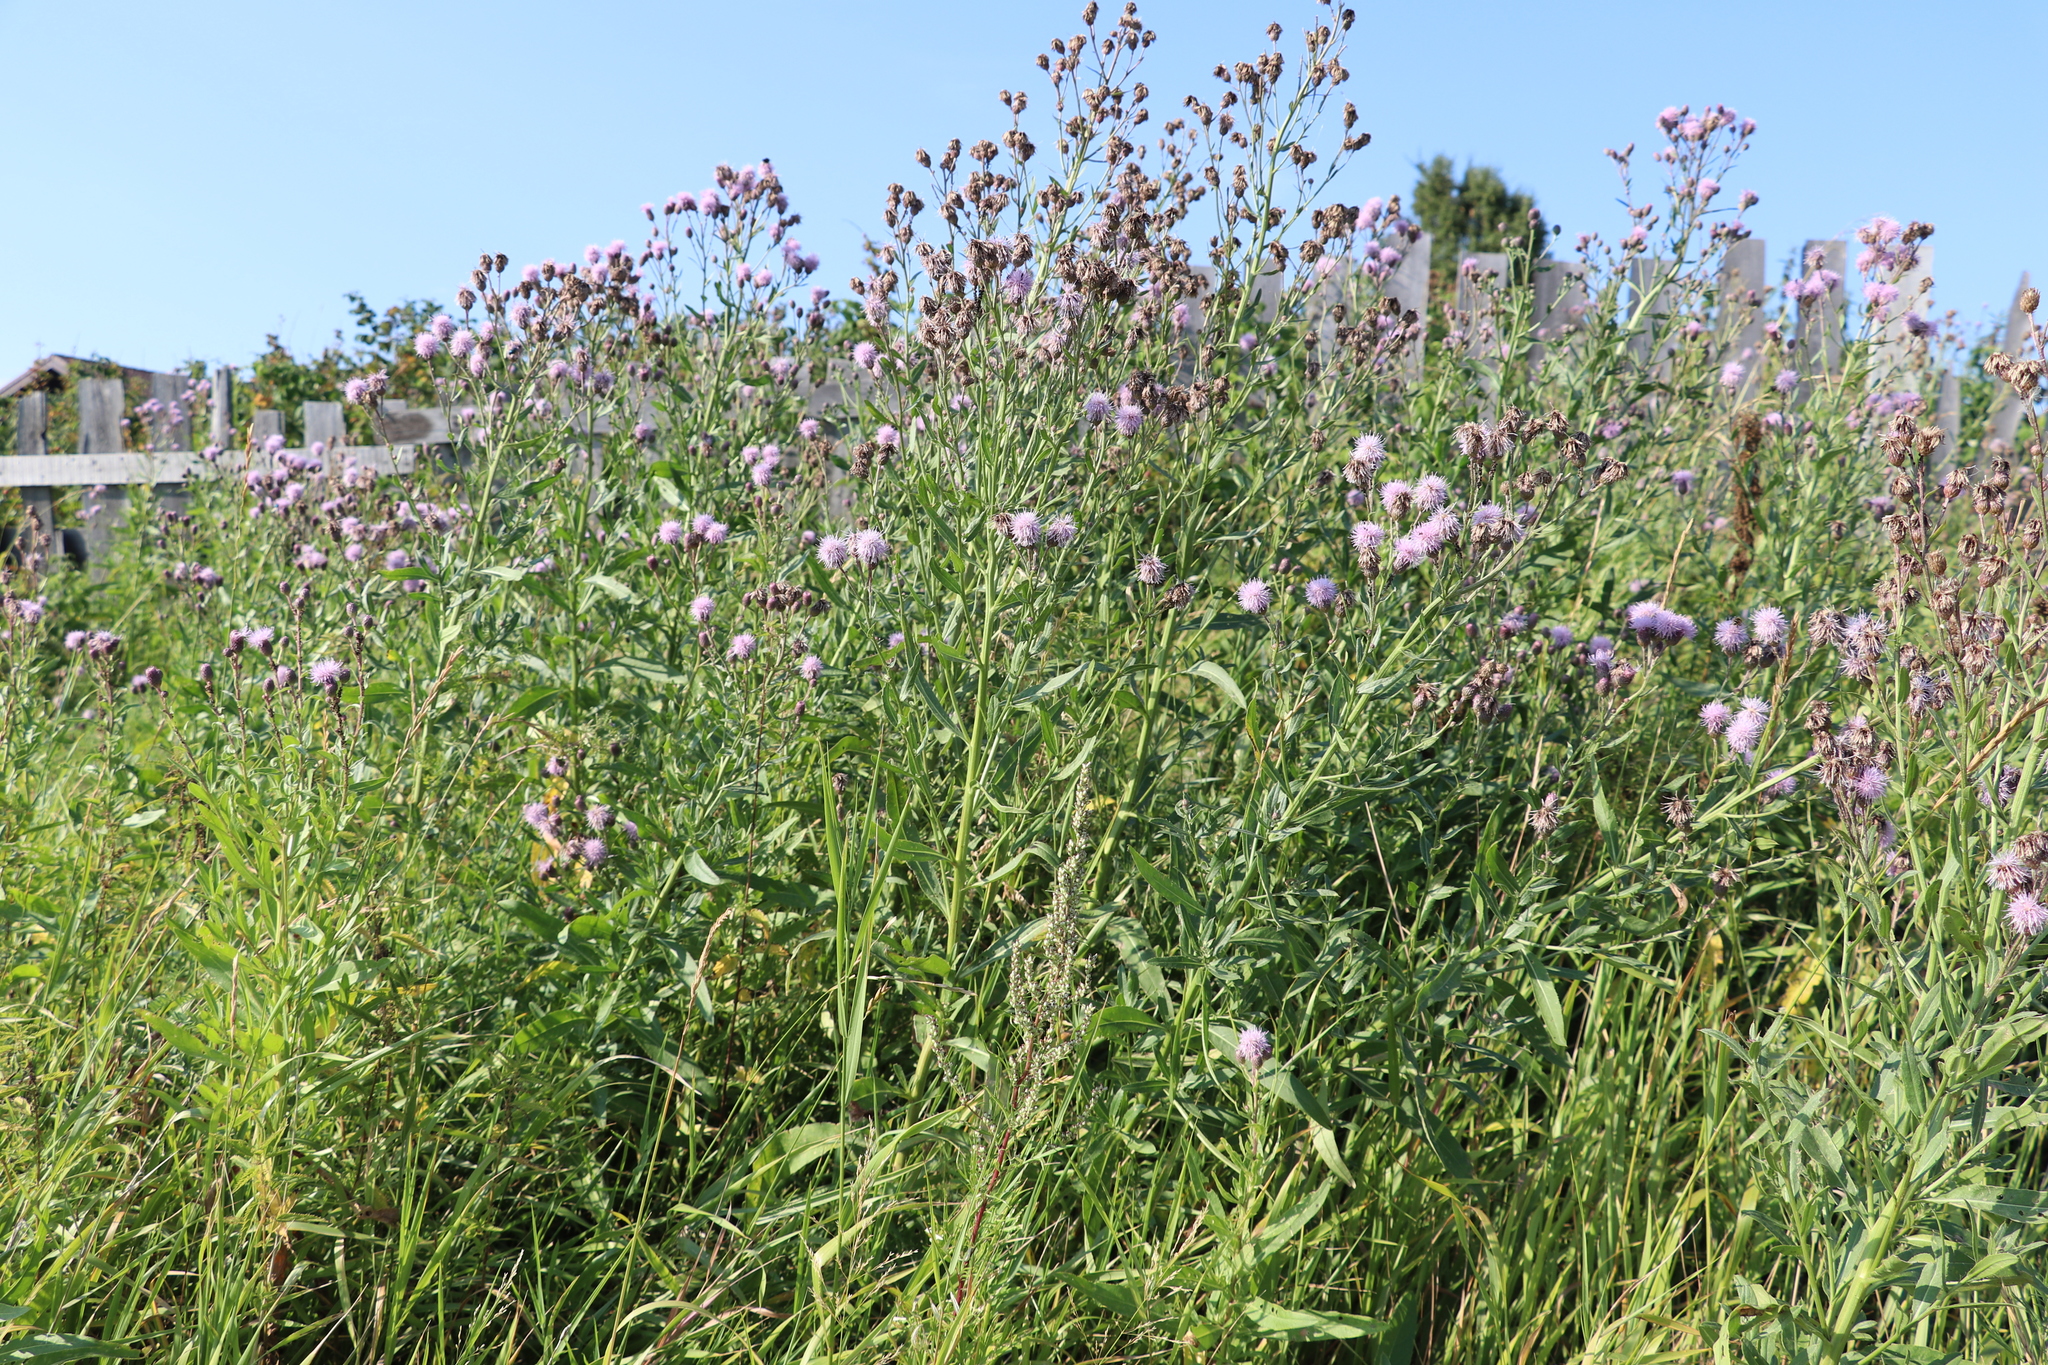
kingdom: Plantae
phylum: Tracheophyta
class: Magnoliopsida
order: Asterales
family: Asteraceae
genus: Cirsium
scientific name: Cirsium arvense
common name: Creeping thistle
